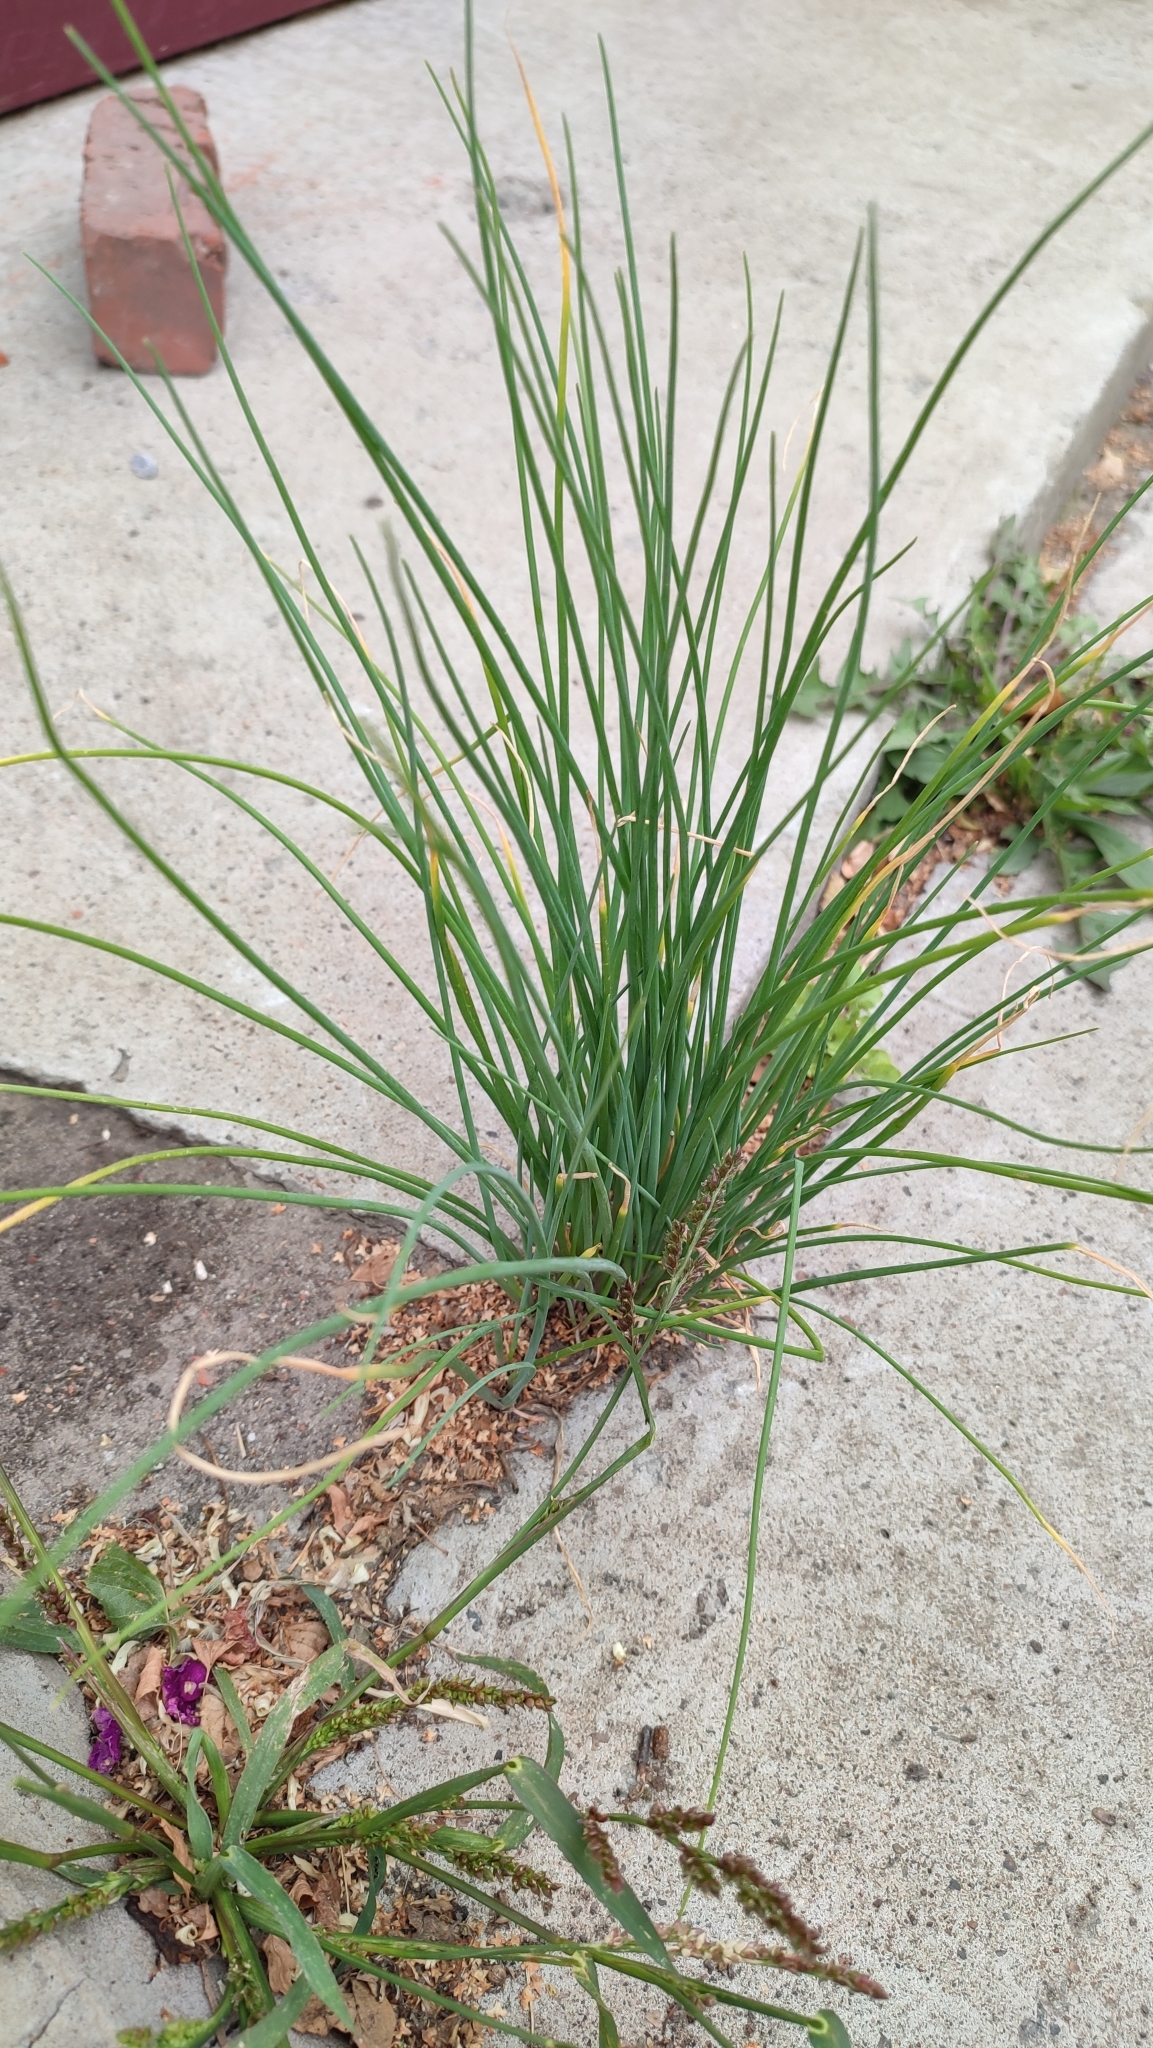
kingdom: Plantae
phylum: Tracheophyta
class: Liliopsida
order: Asparagales
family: Amaryllidaceae
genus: Allium
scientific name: Allium schoenoprasum
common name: Chives
